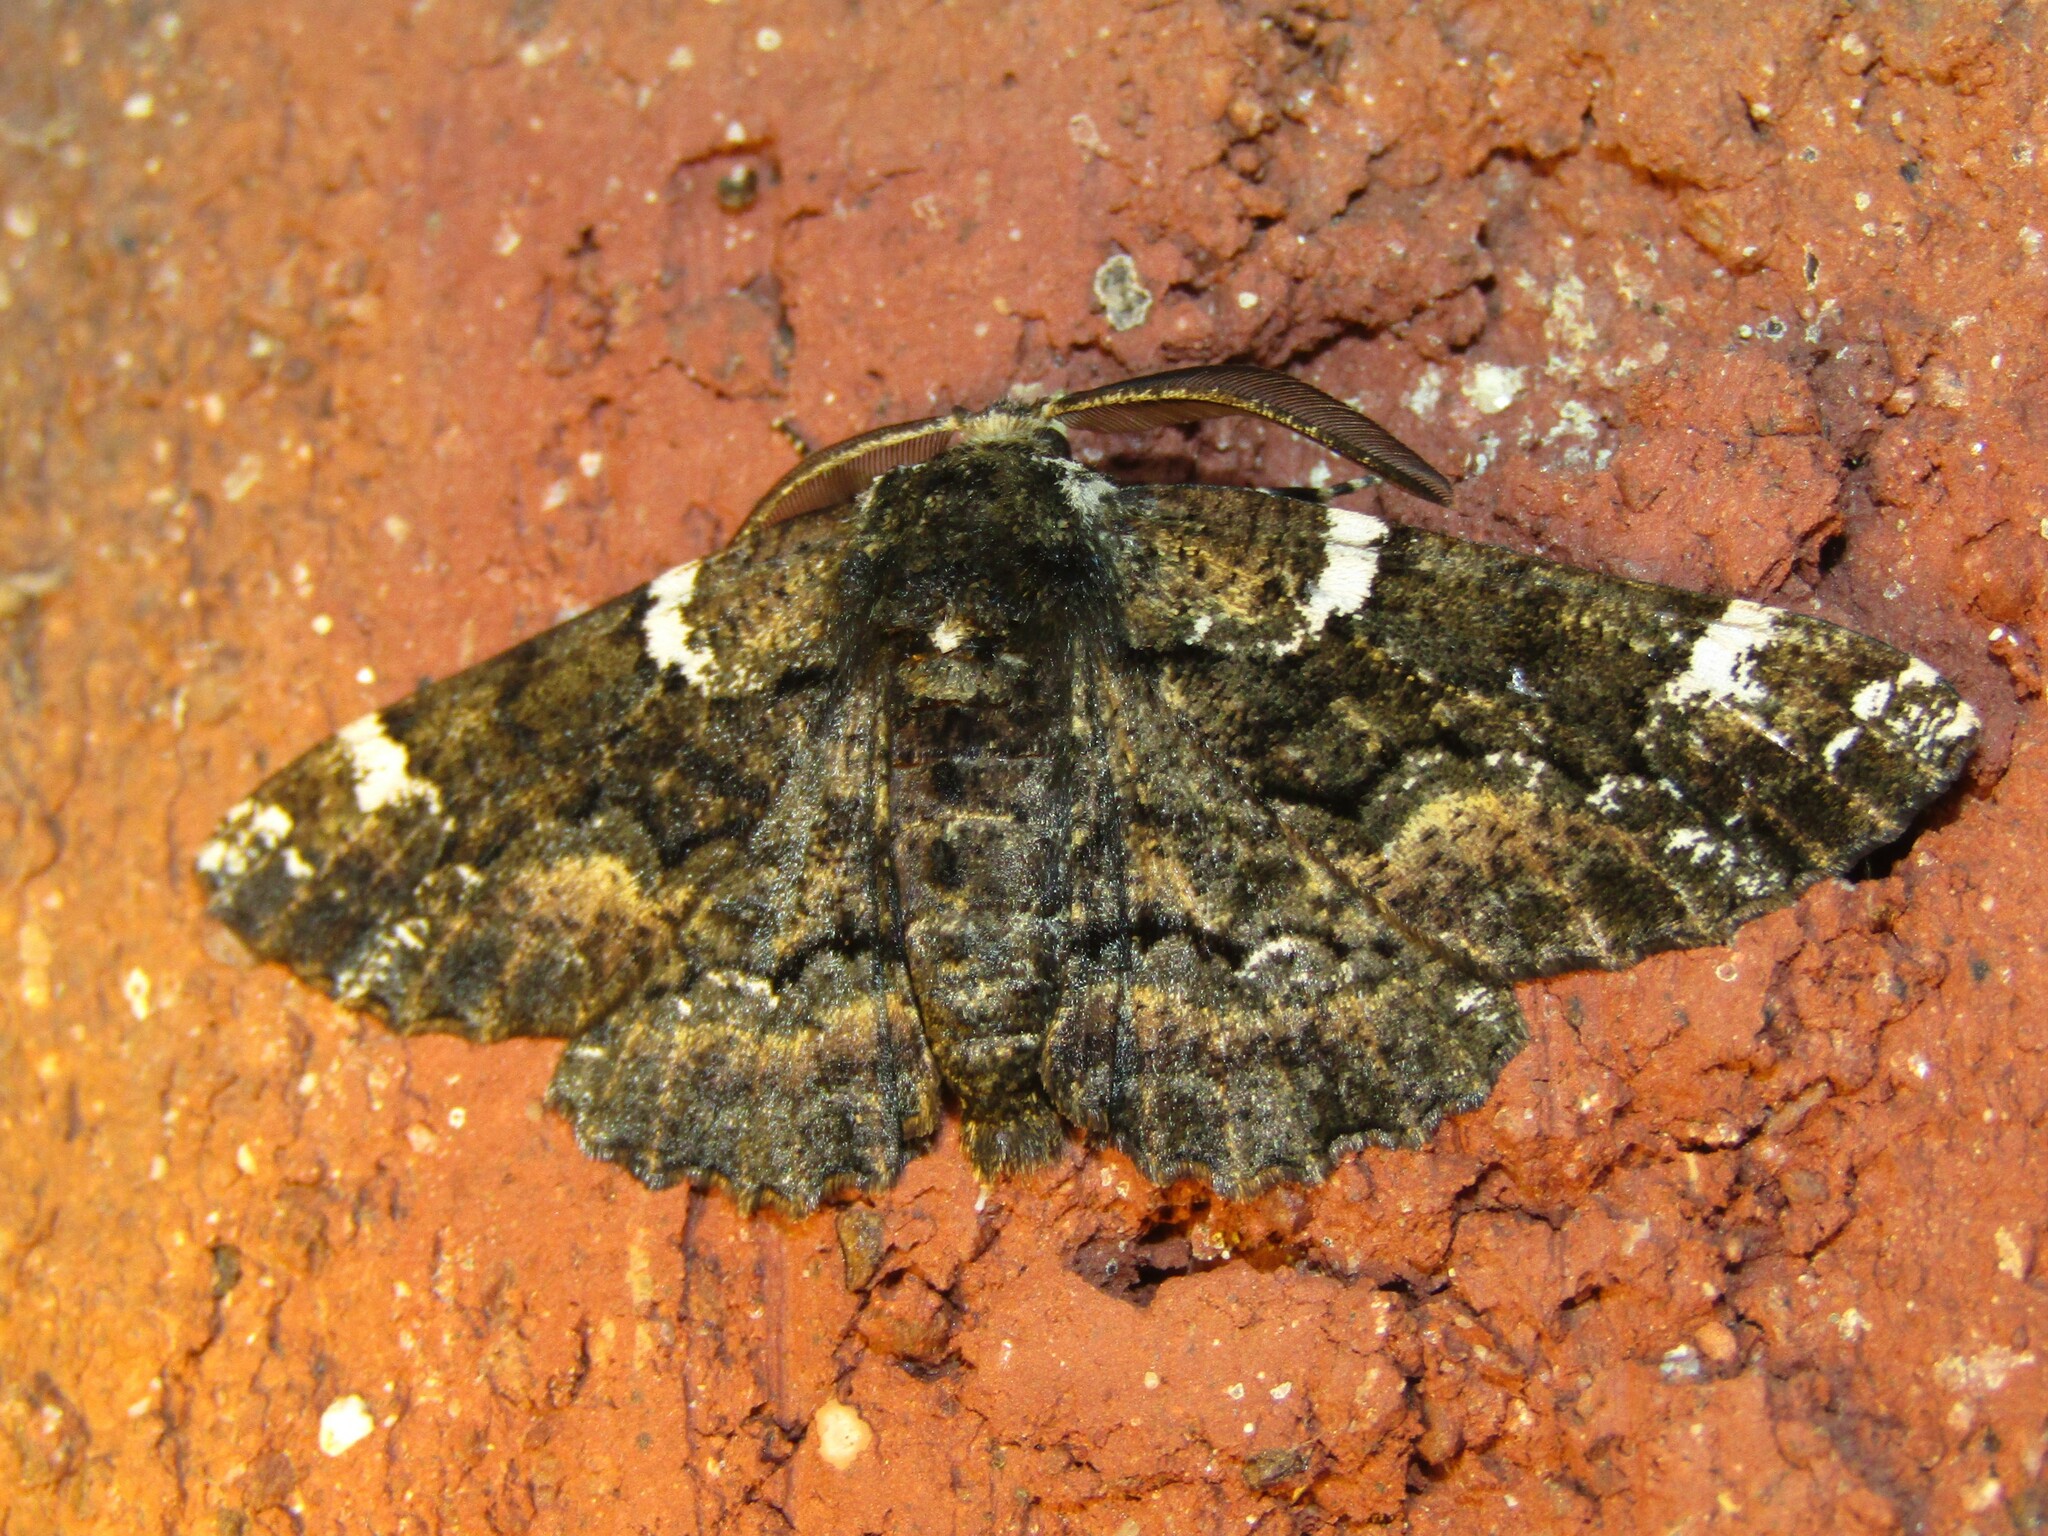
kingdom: Animalia
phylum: Arthropoda
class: Insecta
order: Lepidoptera
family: Geometridae
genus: Phaeoura
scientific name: Phaeoura quernaria
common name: Oak beauty
